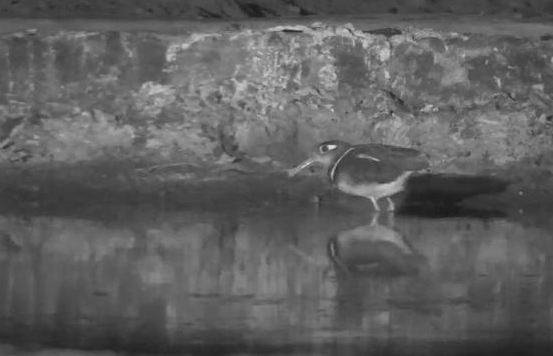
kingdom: Animalia
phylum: Chordata
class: Aves
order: Charadriiformes
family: Rostratulidae
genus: Rostratula
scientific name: Rostratula benghalensis
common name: Greater painted-snipe
